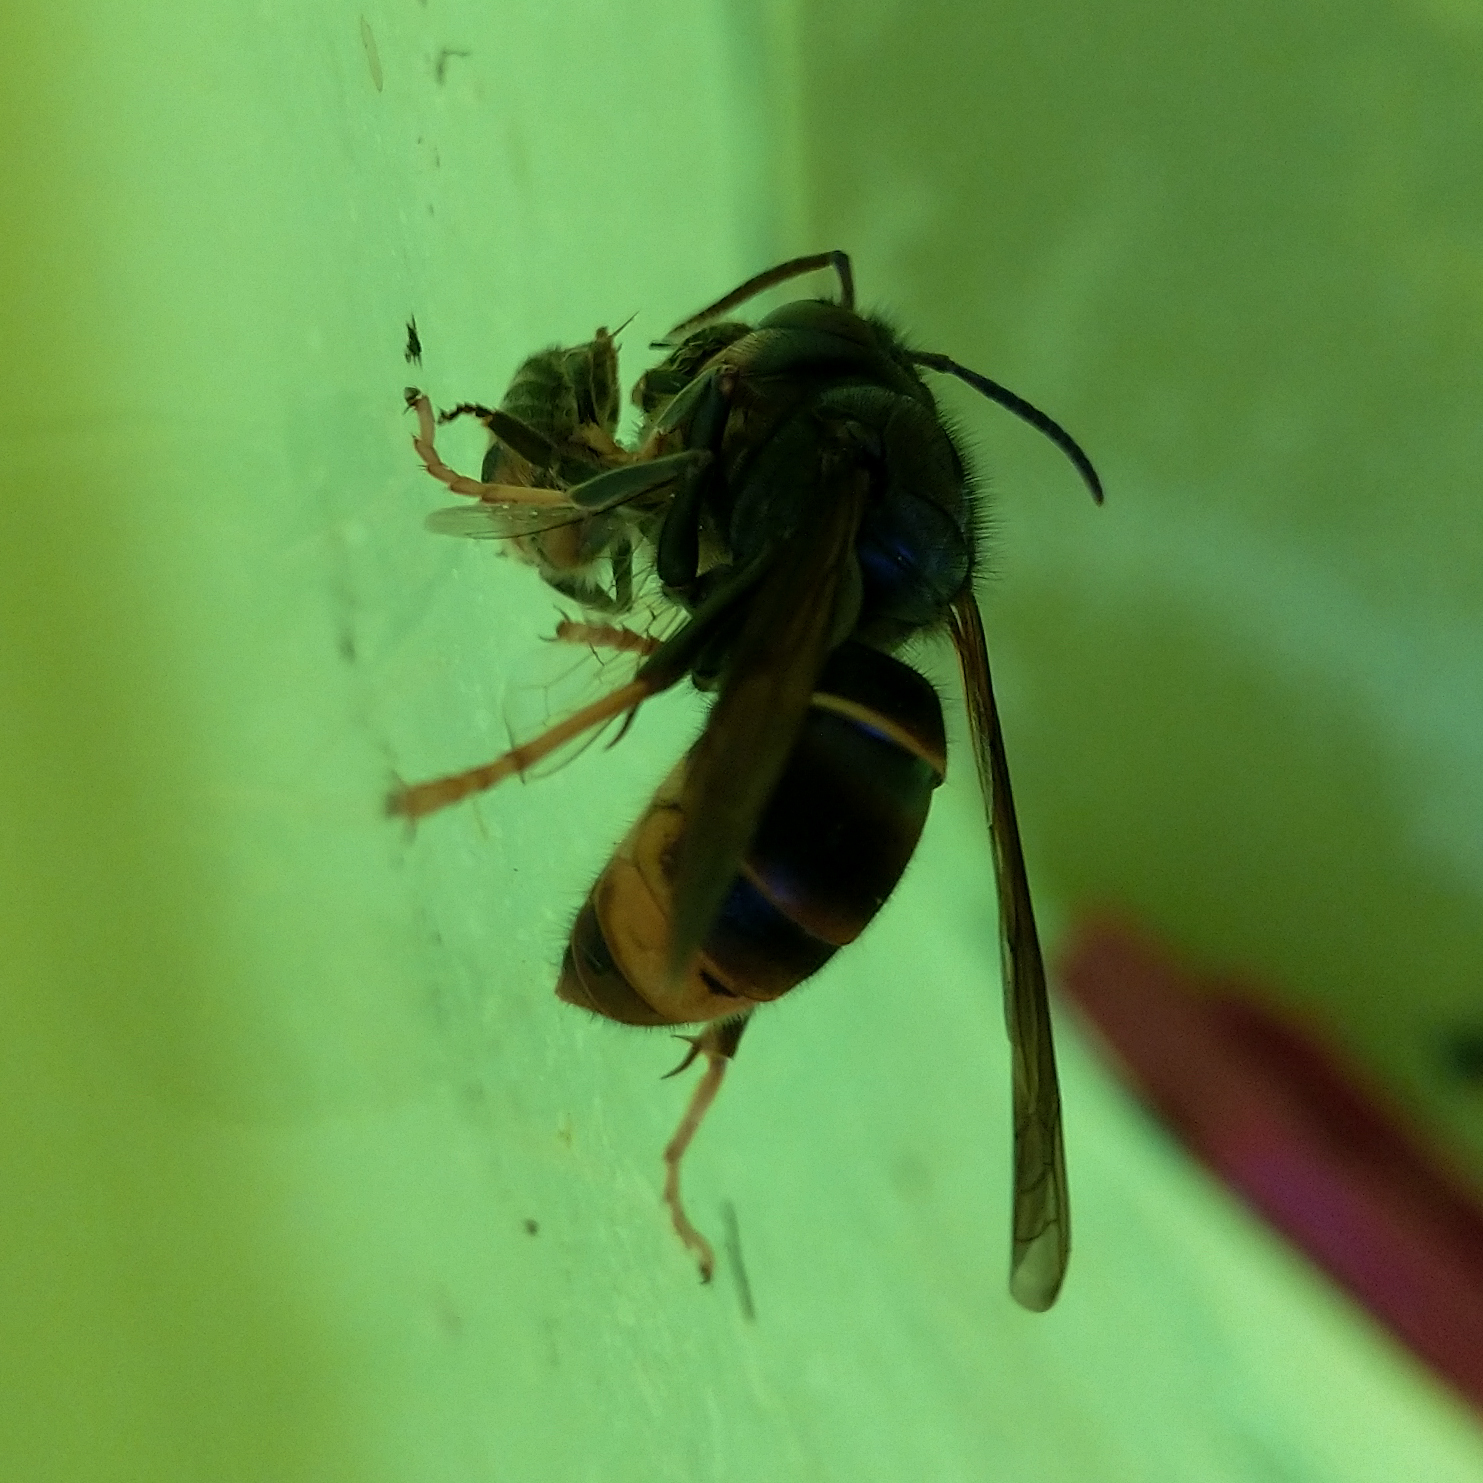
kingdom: Animalia
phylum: Arthropoda
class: Insecta
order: Hymenoptera
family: Vespidae
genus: Vespa
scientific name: Vespa velutina
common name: Asian hornet
